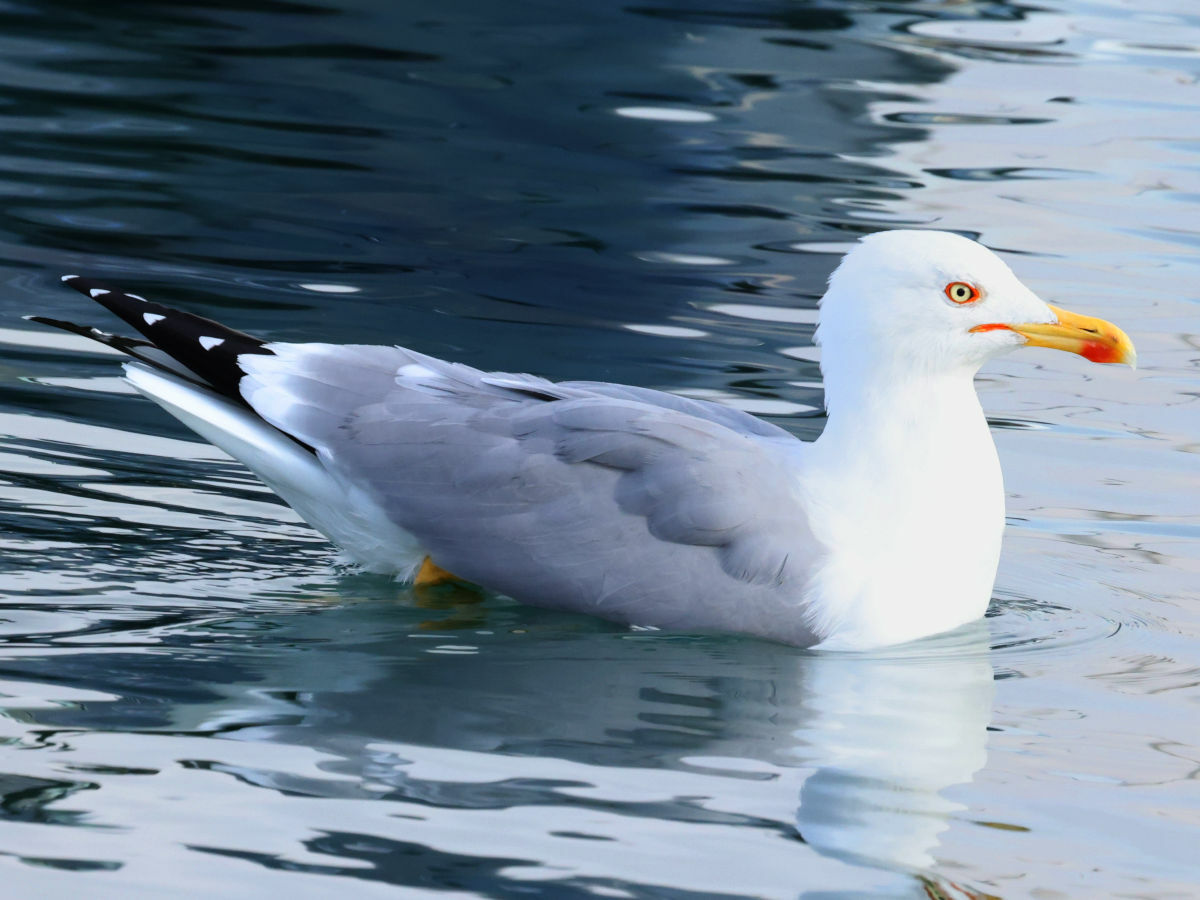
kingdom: Animalia
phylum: Chordata
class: Aves
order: Charadriiformes
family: Laridae
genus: Larus
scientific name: Larus michahellis
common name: Yellow-legged gull
